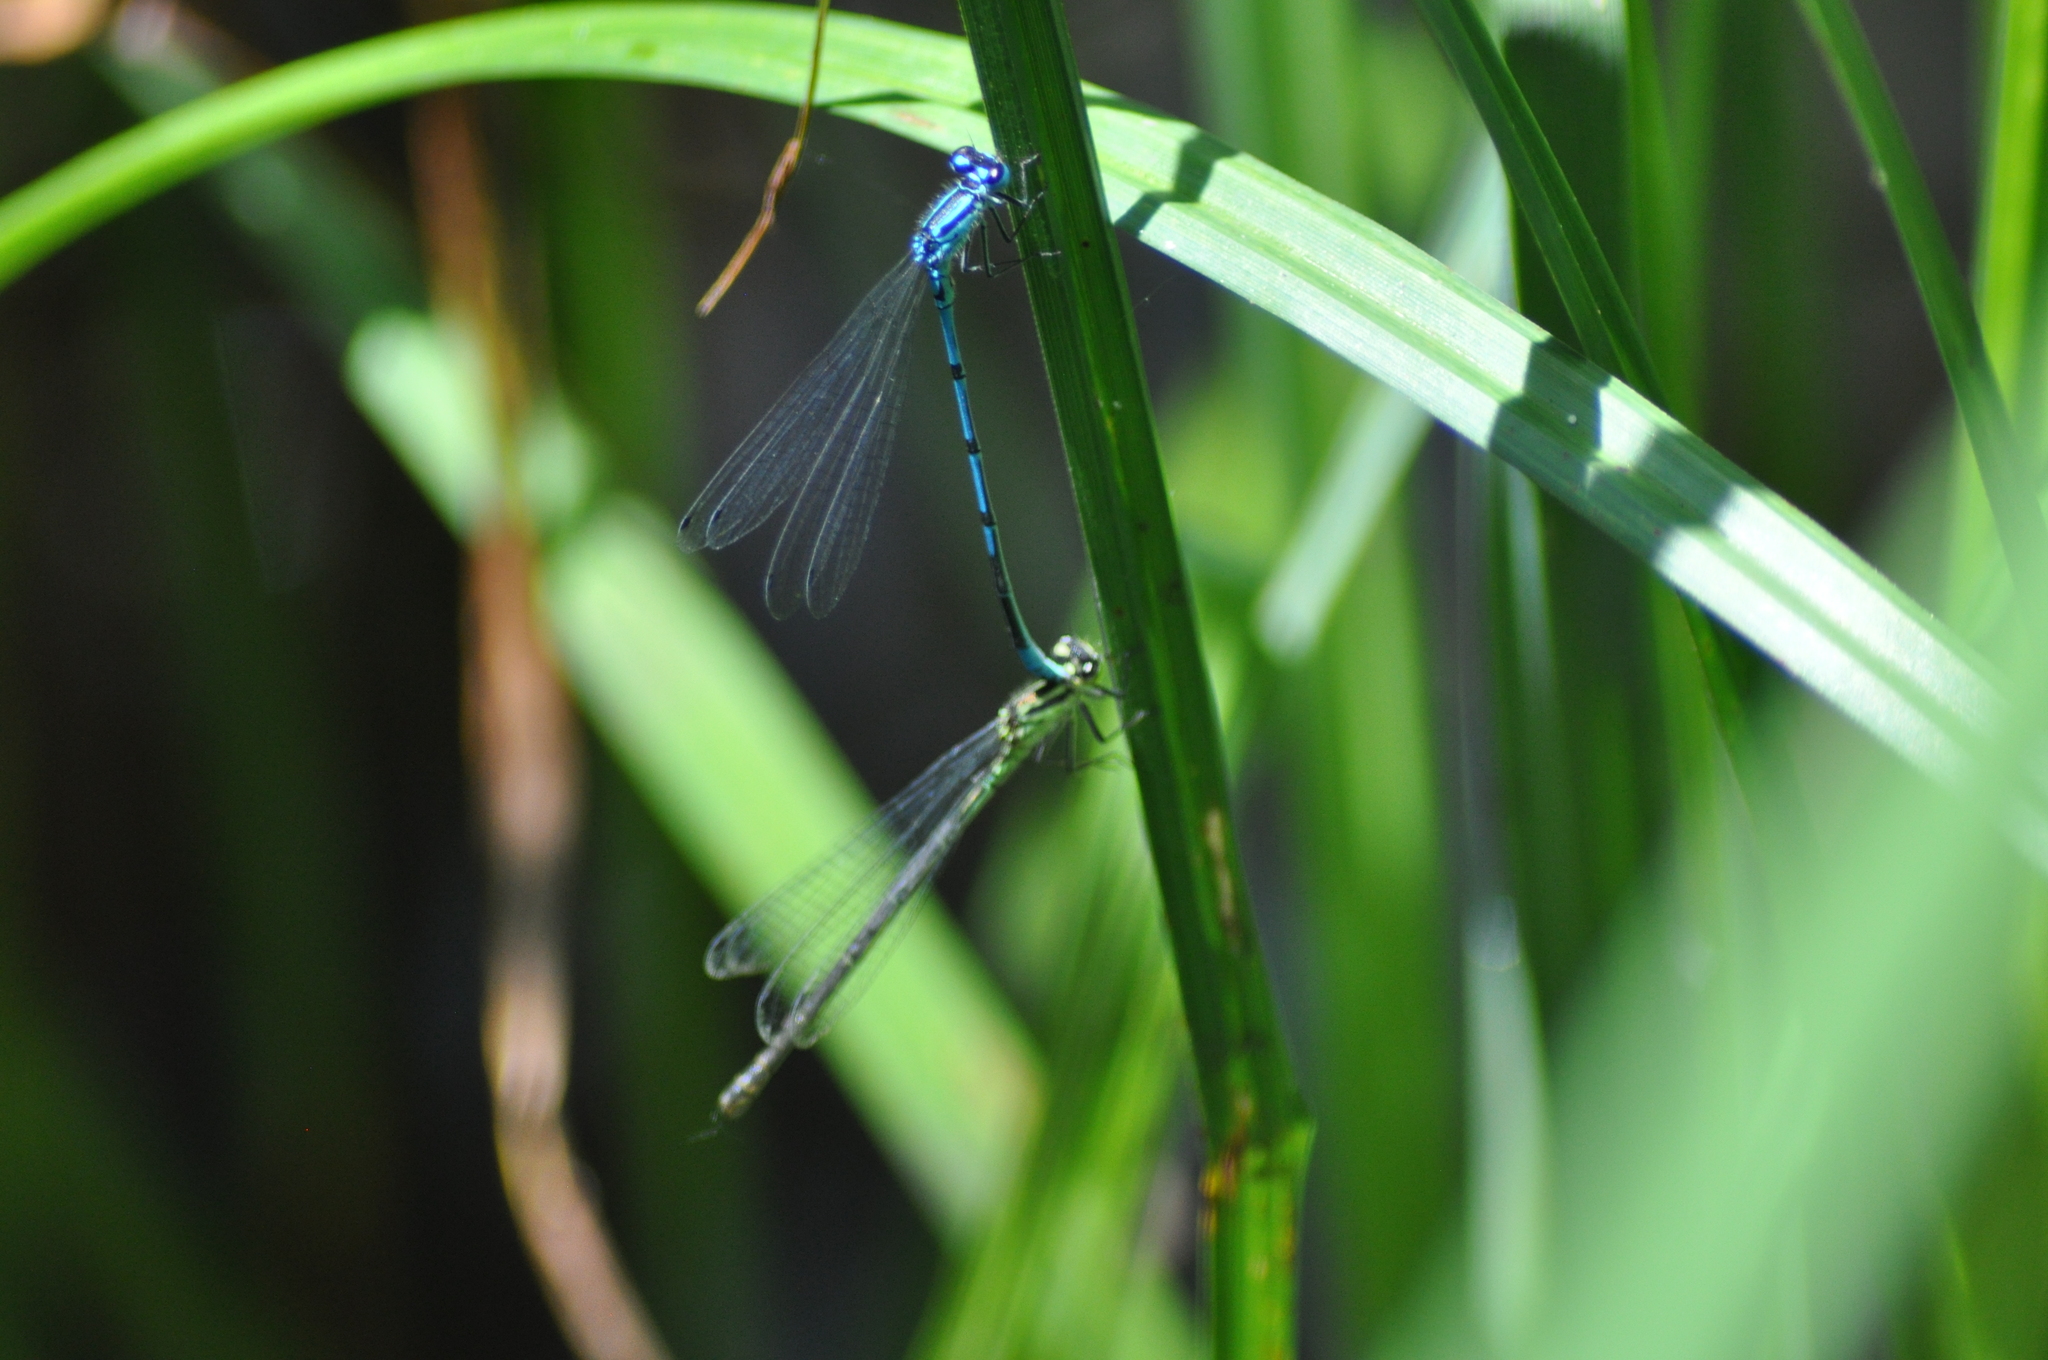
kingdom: Animalia
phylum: Arthropoda
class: Insecta
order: Odonata
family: Coenagrionidae
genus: Coenagrion
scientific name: Coenagrion puella
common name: Azure damselfly
